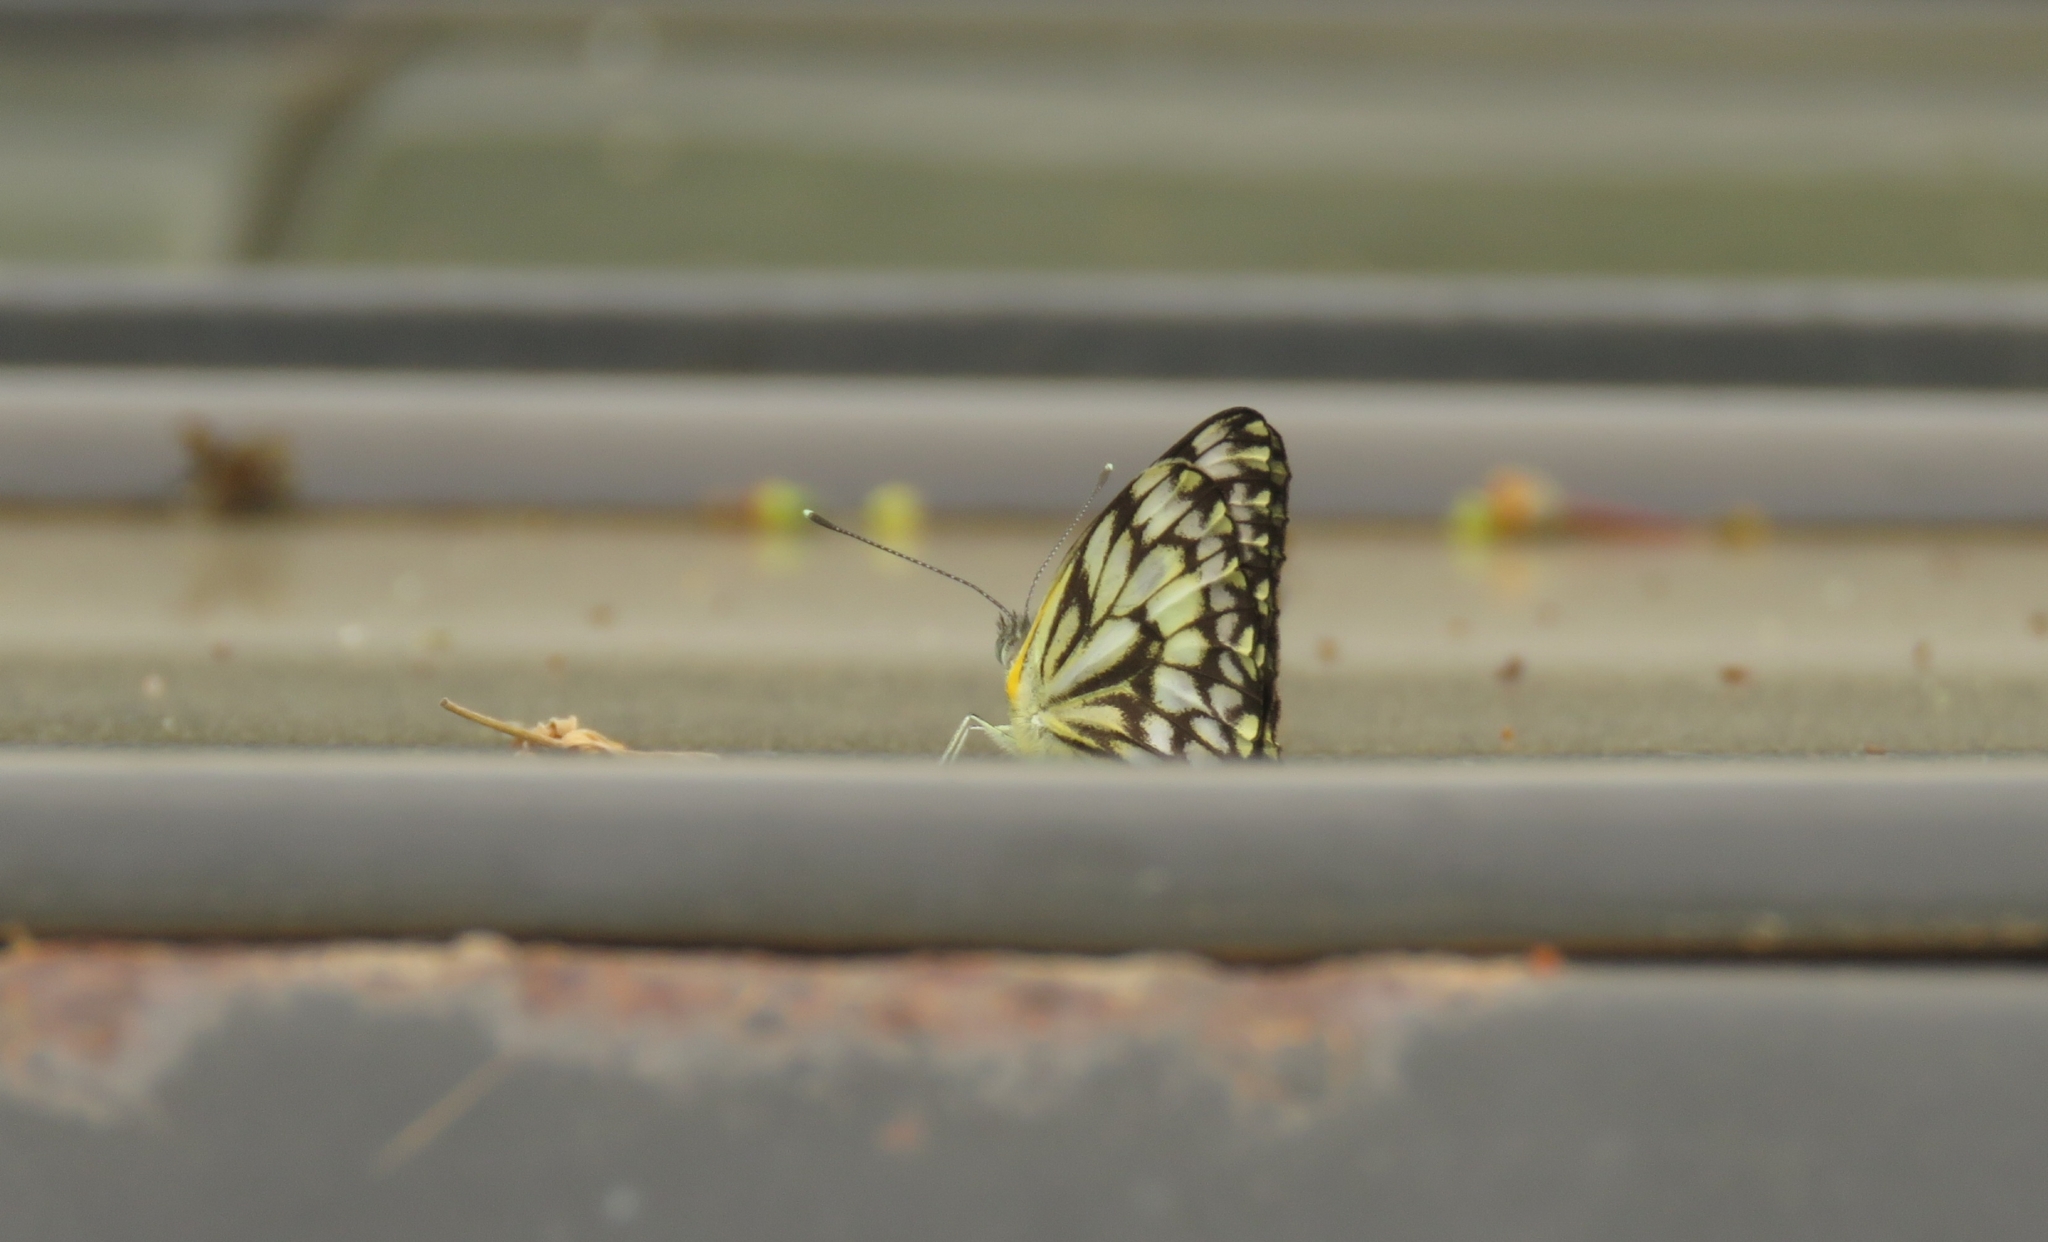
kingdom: Animalia
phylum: Arthropoda
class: Insecta
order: Lepidoptera
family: Pieridae
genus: Belenois
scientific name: Belenois gidica
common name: Pointed caper white
